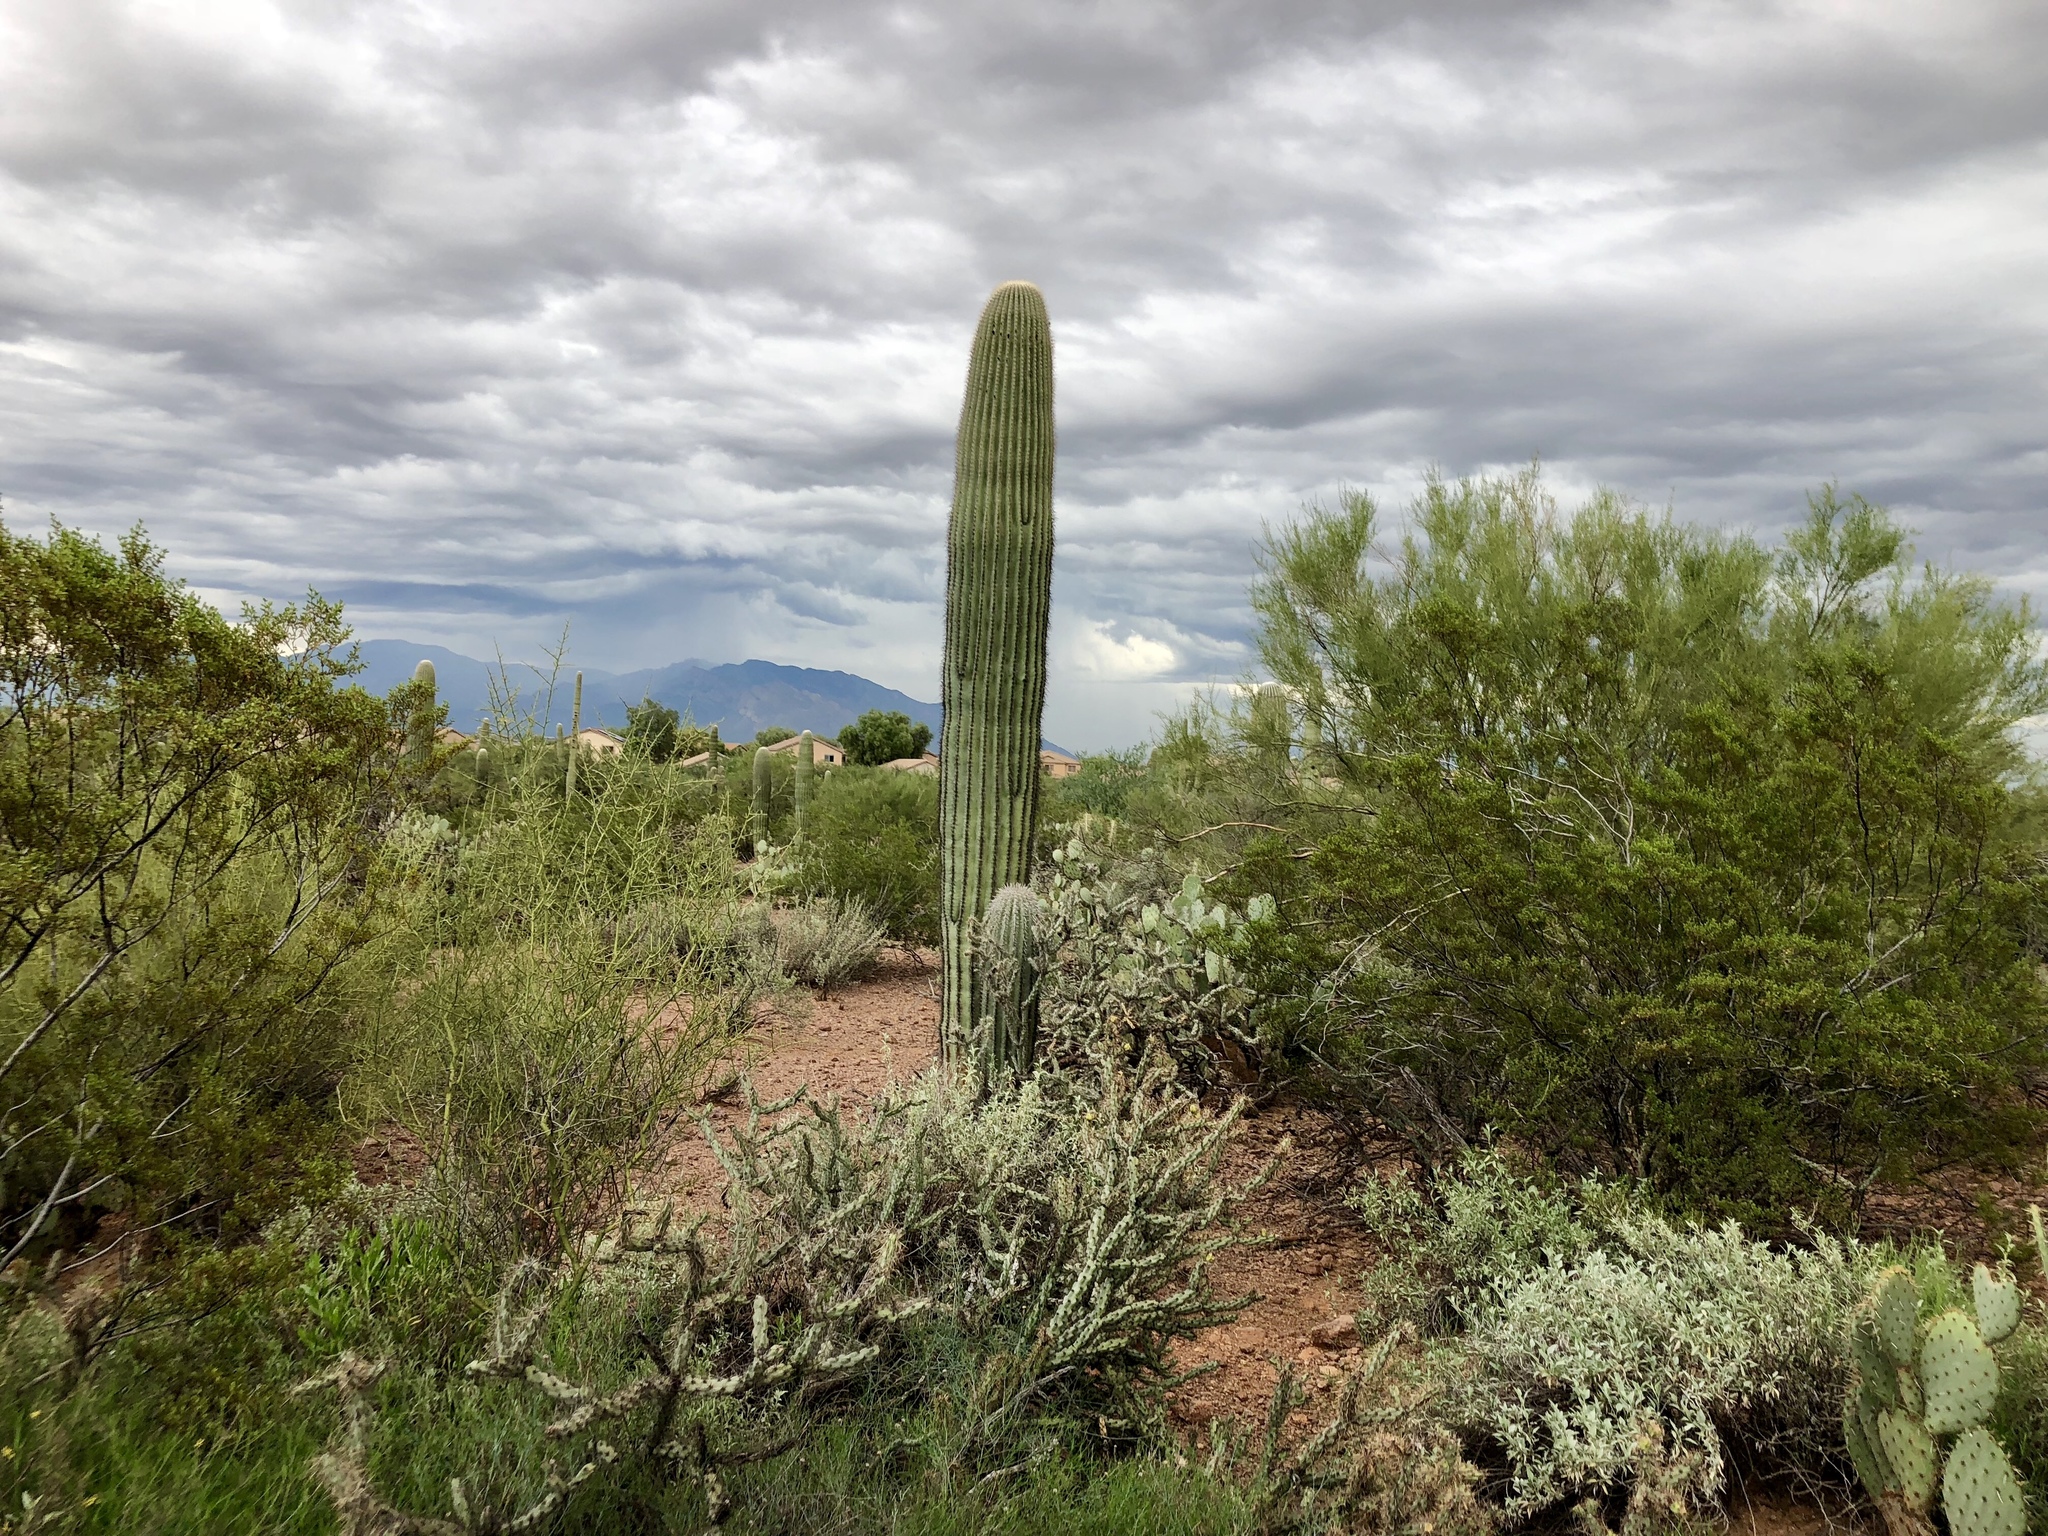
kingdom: Plantae
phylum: Tracheophyta
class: Magnoliopsida
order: Caryophyllales
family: Cactaceae
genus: Carnegiea
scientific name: Carnegiea gigantea
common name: Saguaro
